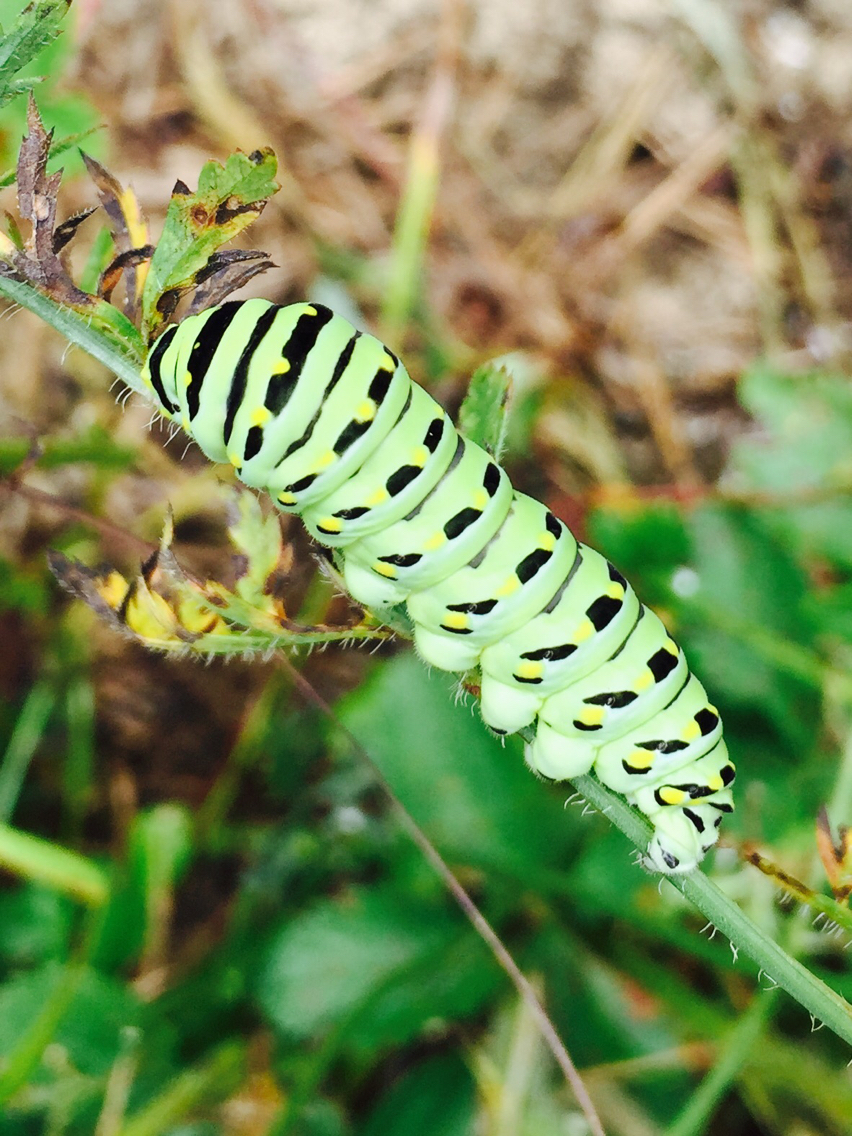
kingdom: Animalia
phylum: Arthropoda
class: Insecta
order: Lepidoptera
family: Papilionidae
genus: Papilio
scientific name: Papilio polyxenes
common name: Black swallowtail
